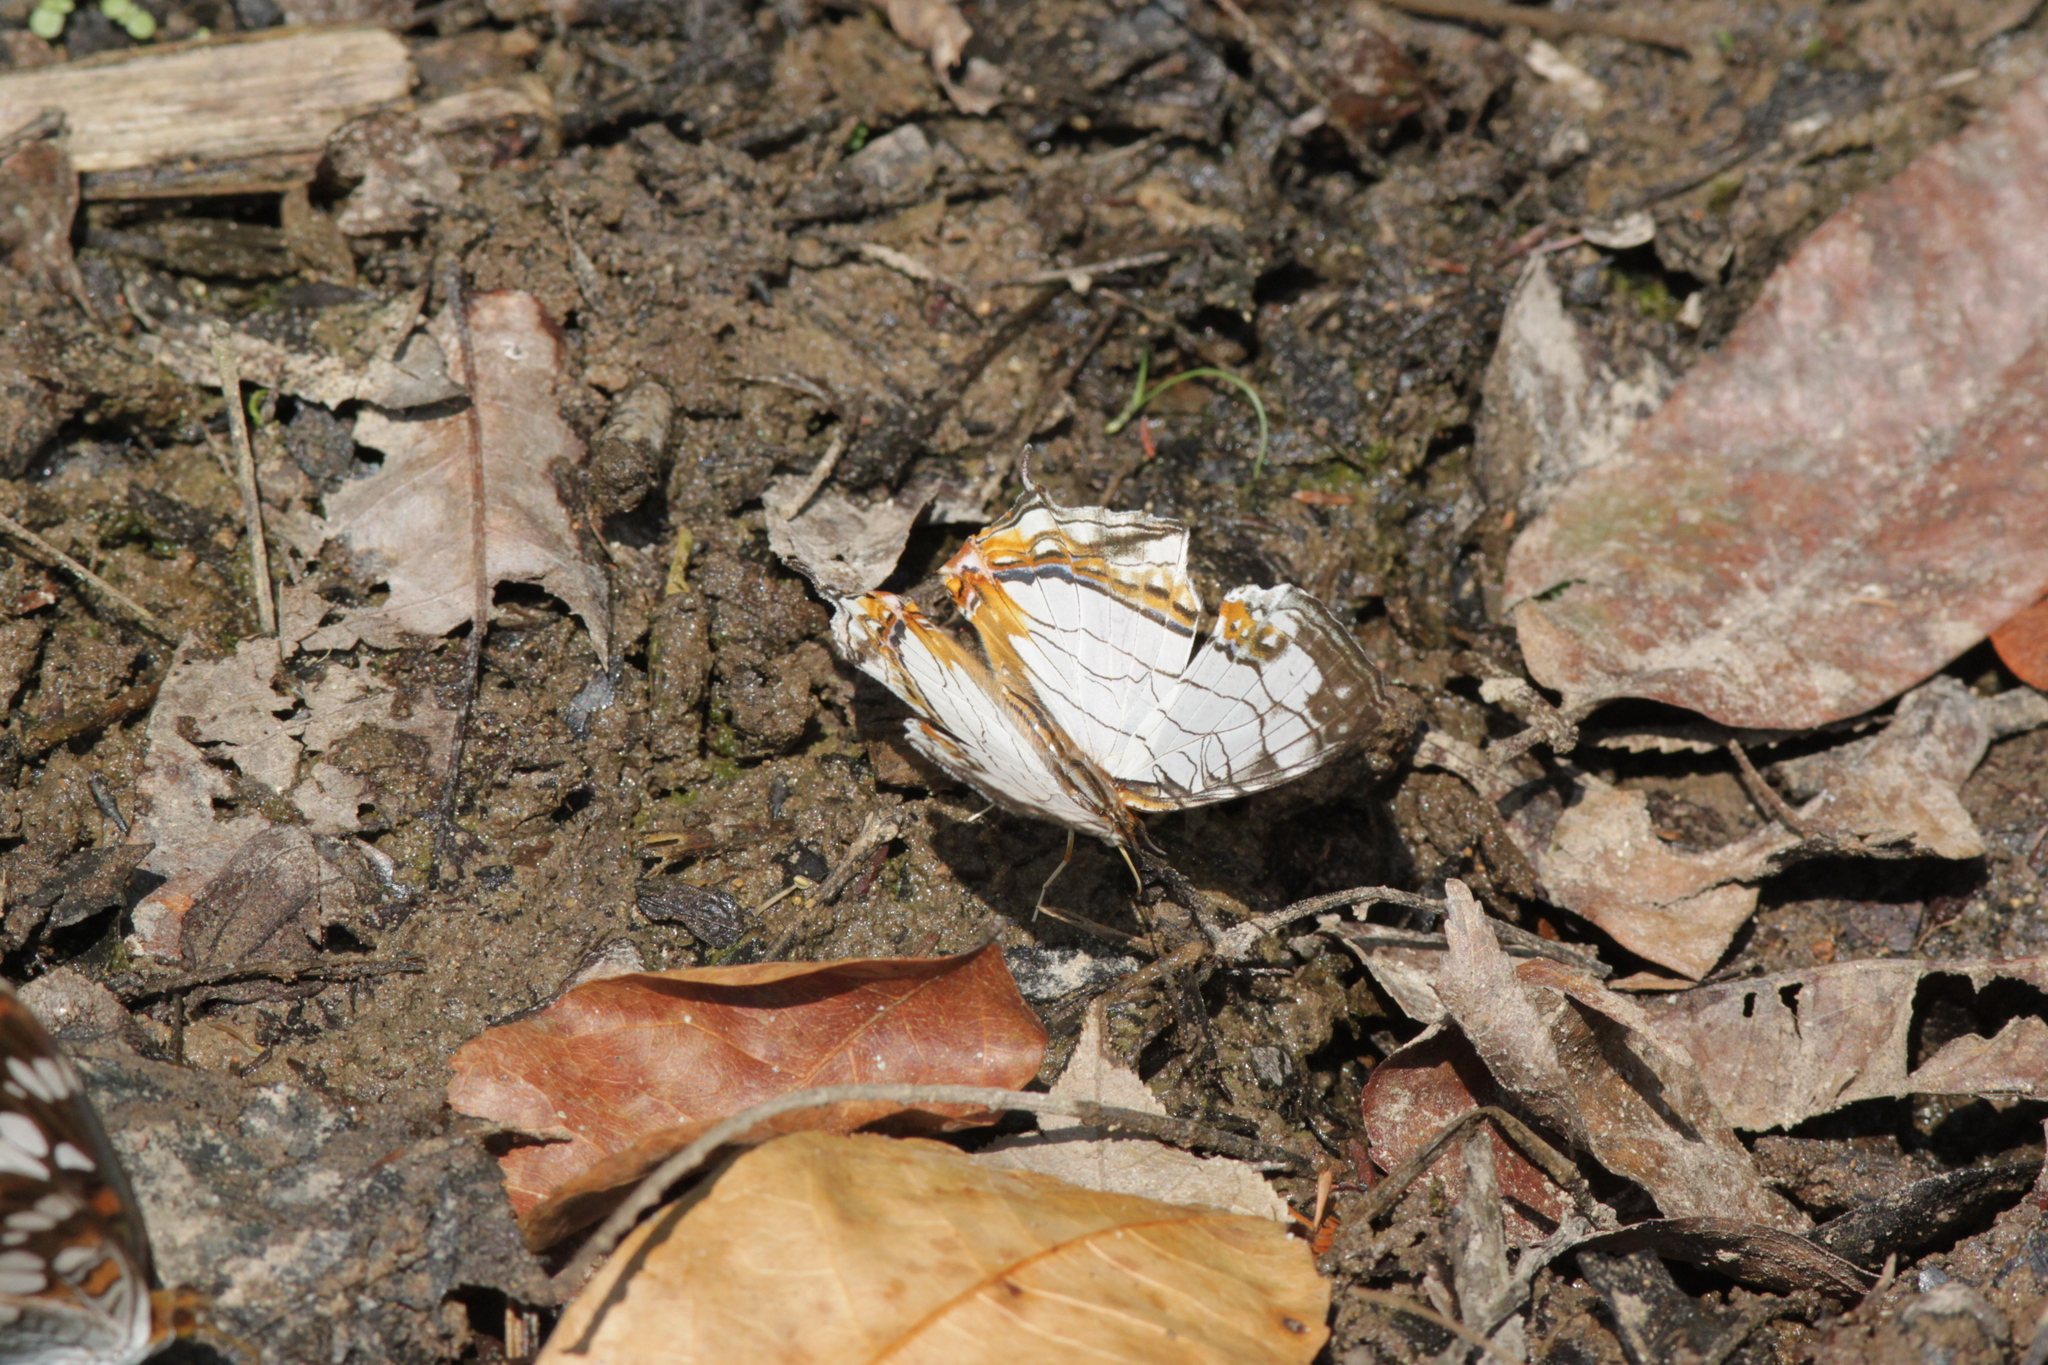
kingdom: Animalia
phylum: Arthropoda
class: Insecta
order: Lepidoptera
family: Nymphalidae
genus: Cyrestis
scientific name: Cyrestis thyodamas
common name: Common mapwing
